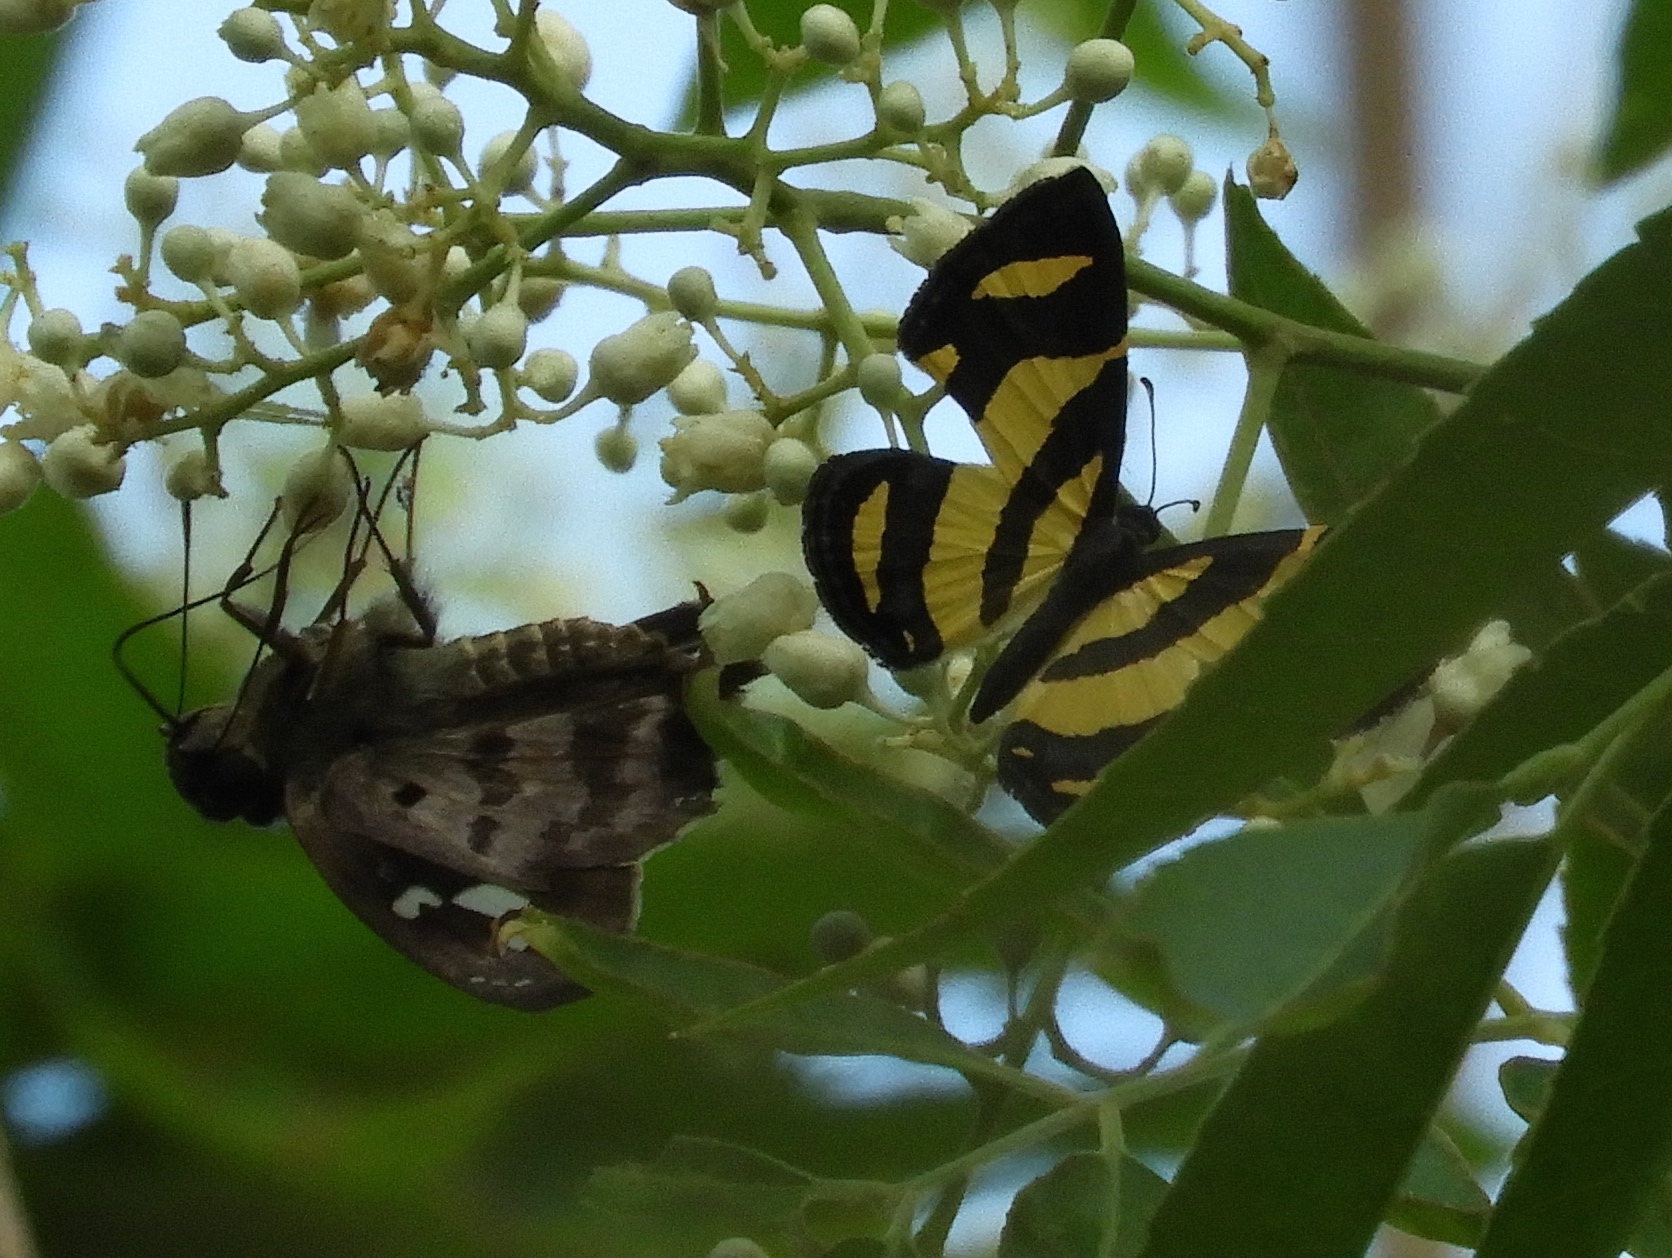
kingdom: Animalia
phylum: Arthropoda
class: Insecta
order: Lepidoptera
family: Hesperiidae
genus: Polygonus
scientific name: Polygonus leo
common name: Hammoch skipper
